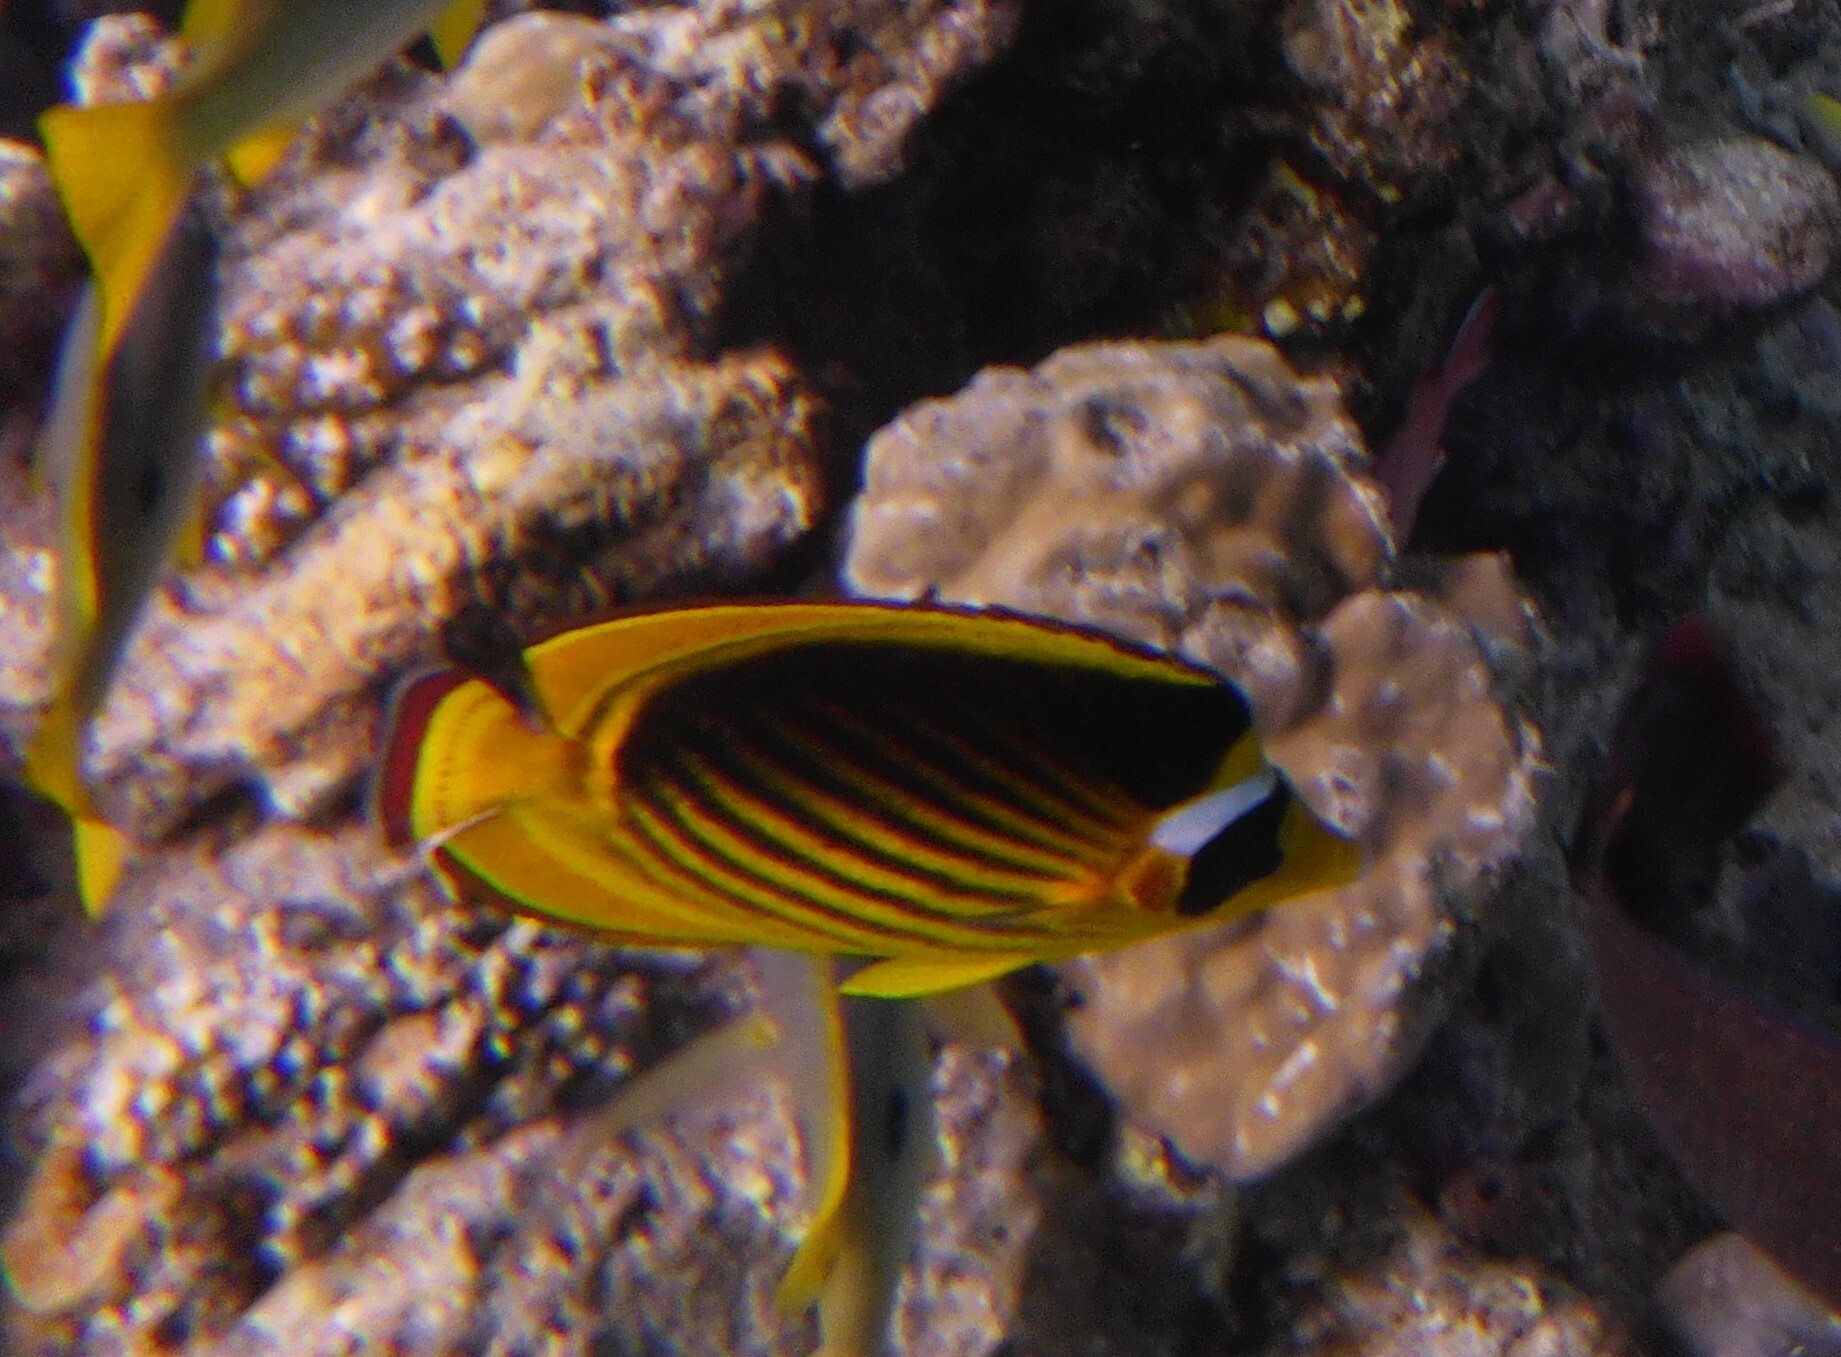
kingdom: Animalia
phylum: Chordata
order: Perciformes
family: Chaetodontidae
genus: Chaetodon
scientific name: Chaetodon fasciatus
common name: Diagonal butterflyfish
